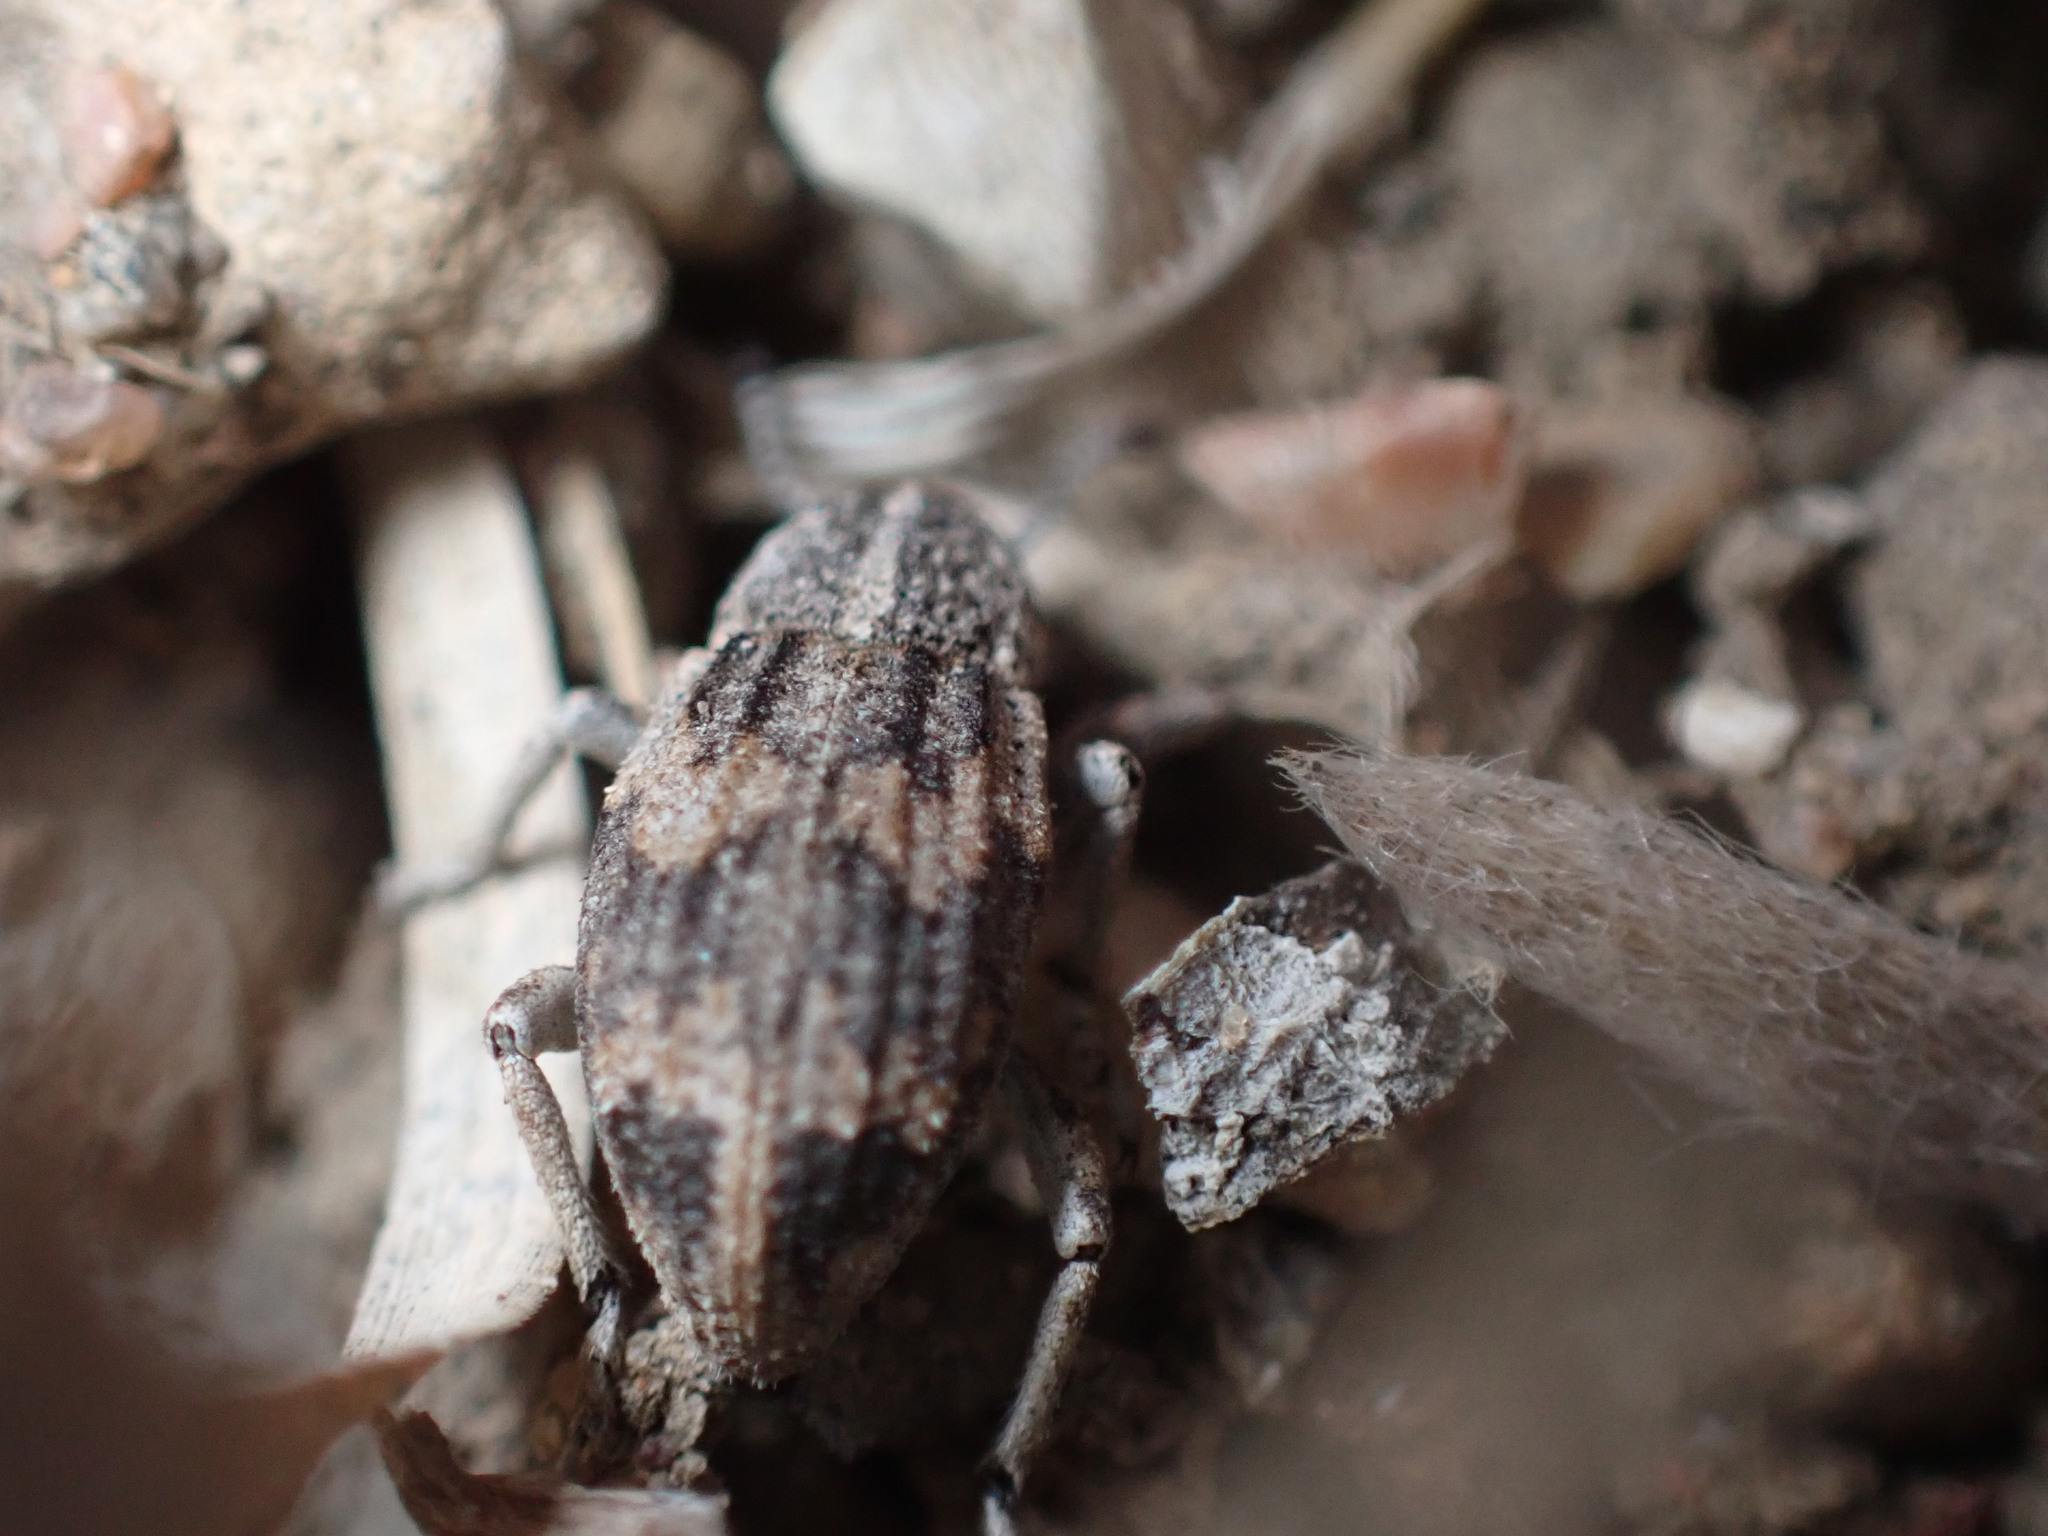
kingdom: Animalia
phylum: Arthropoda
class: Insecta
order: Coleoptera
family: Curculionidae
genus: Graphorhinus
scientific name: Graphorhinus vadosus
